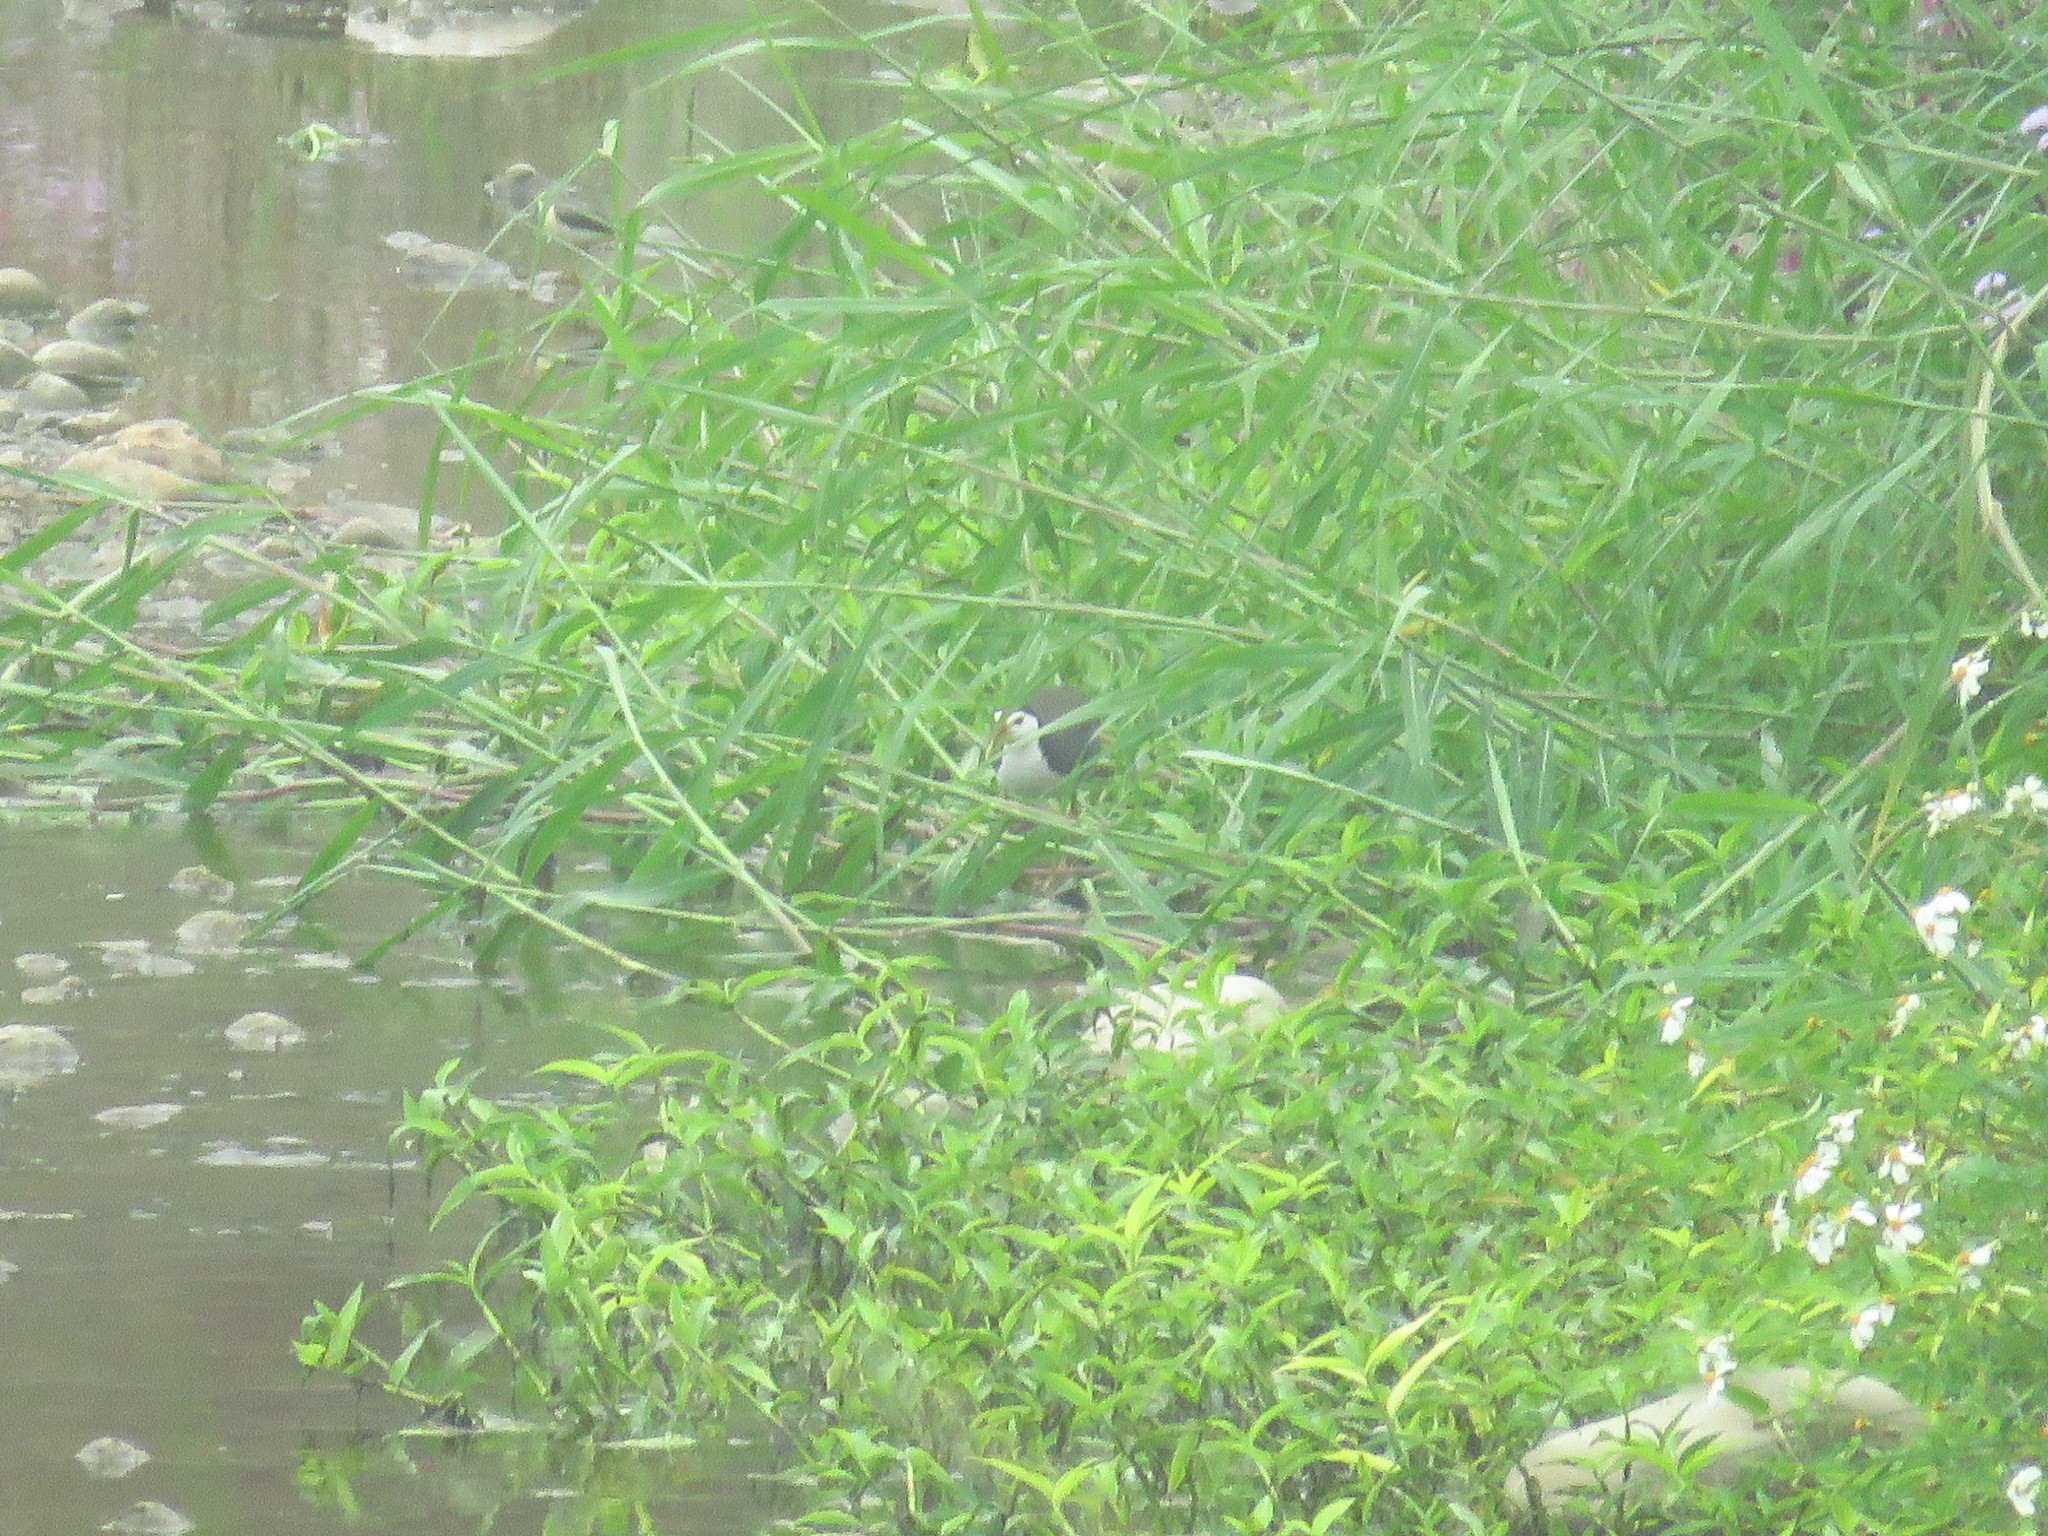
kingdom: Animalia
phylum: Chordata
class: Aves
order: Gruiformes
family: Rallidae
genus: Amaurornis
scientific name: Amaurornis phoenicurus
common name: White-breasted waterhen
